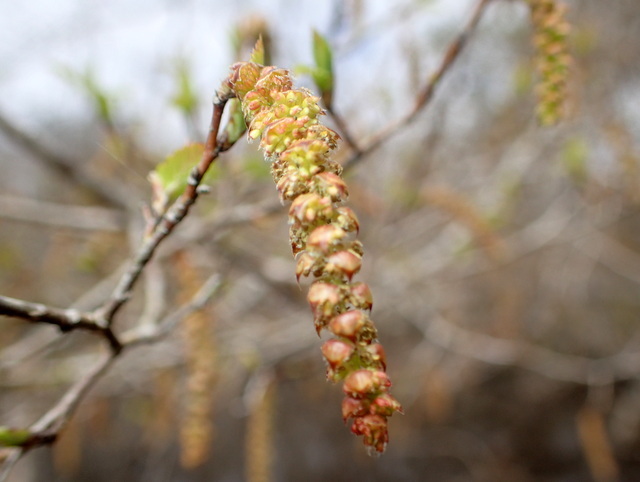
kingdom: Plantae
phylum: Tracheophyta
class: Magnoliopsida
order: Fagales
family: Betulaceae
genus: Alnus
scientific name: Alnus serrulata
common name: Hazel alder
